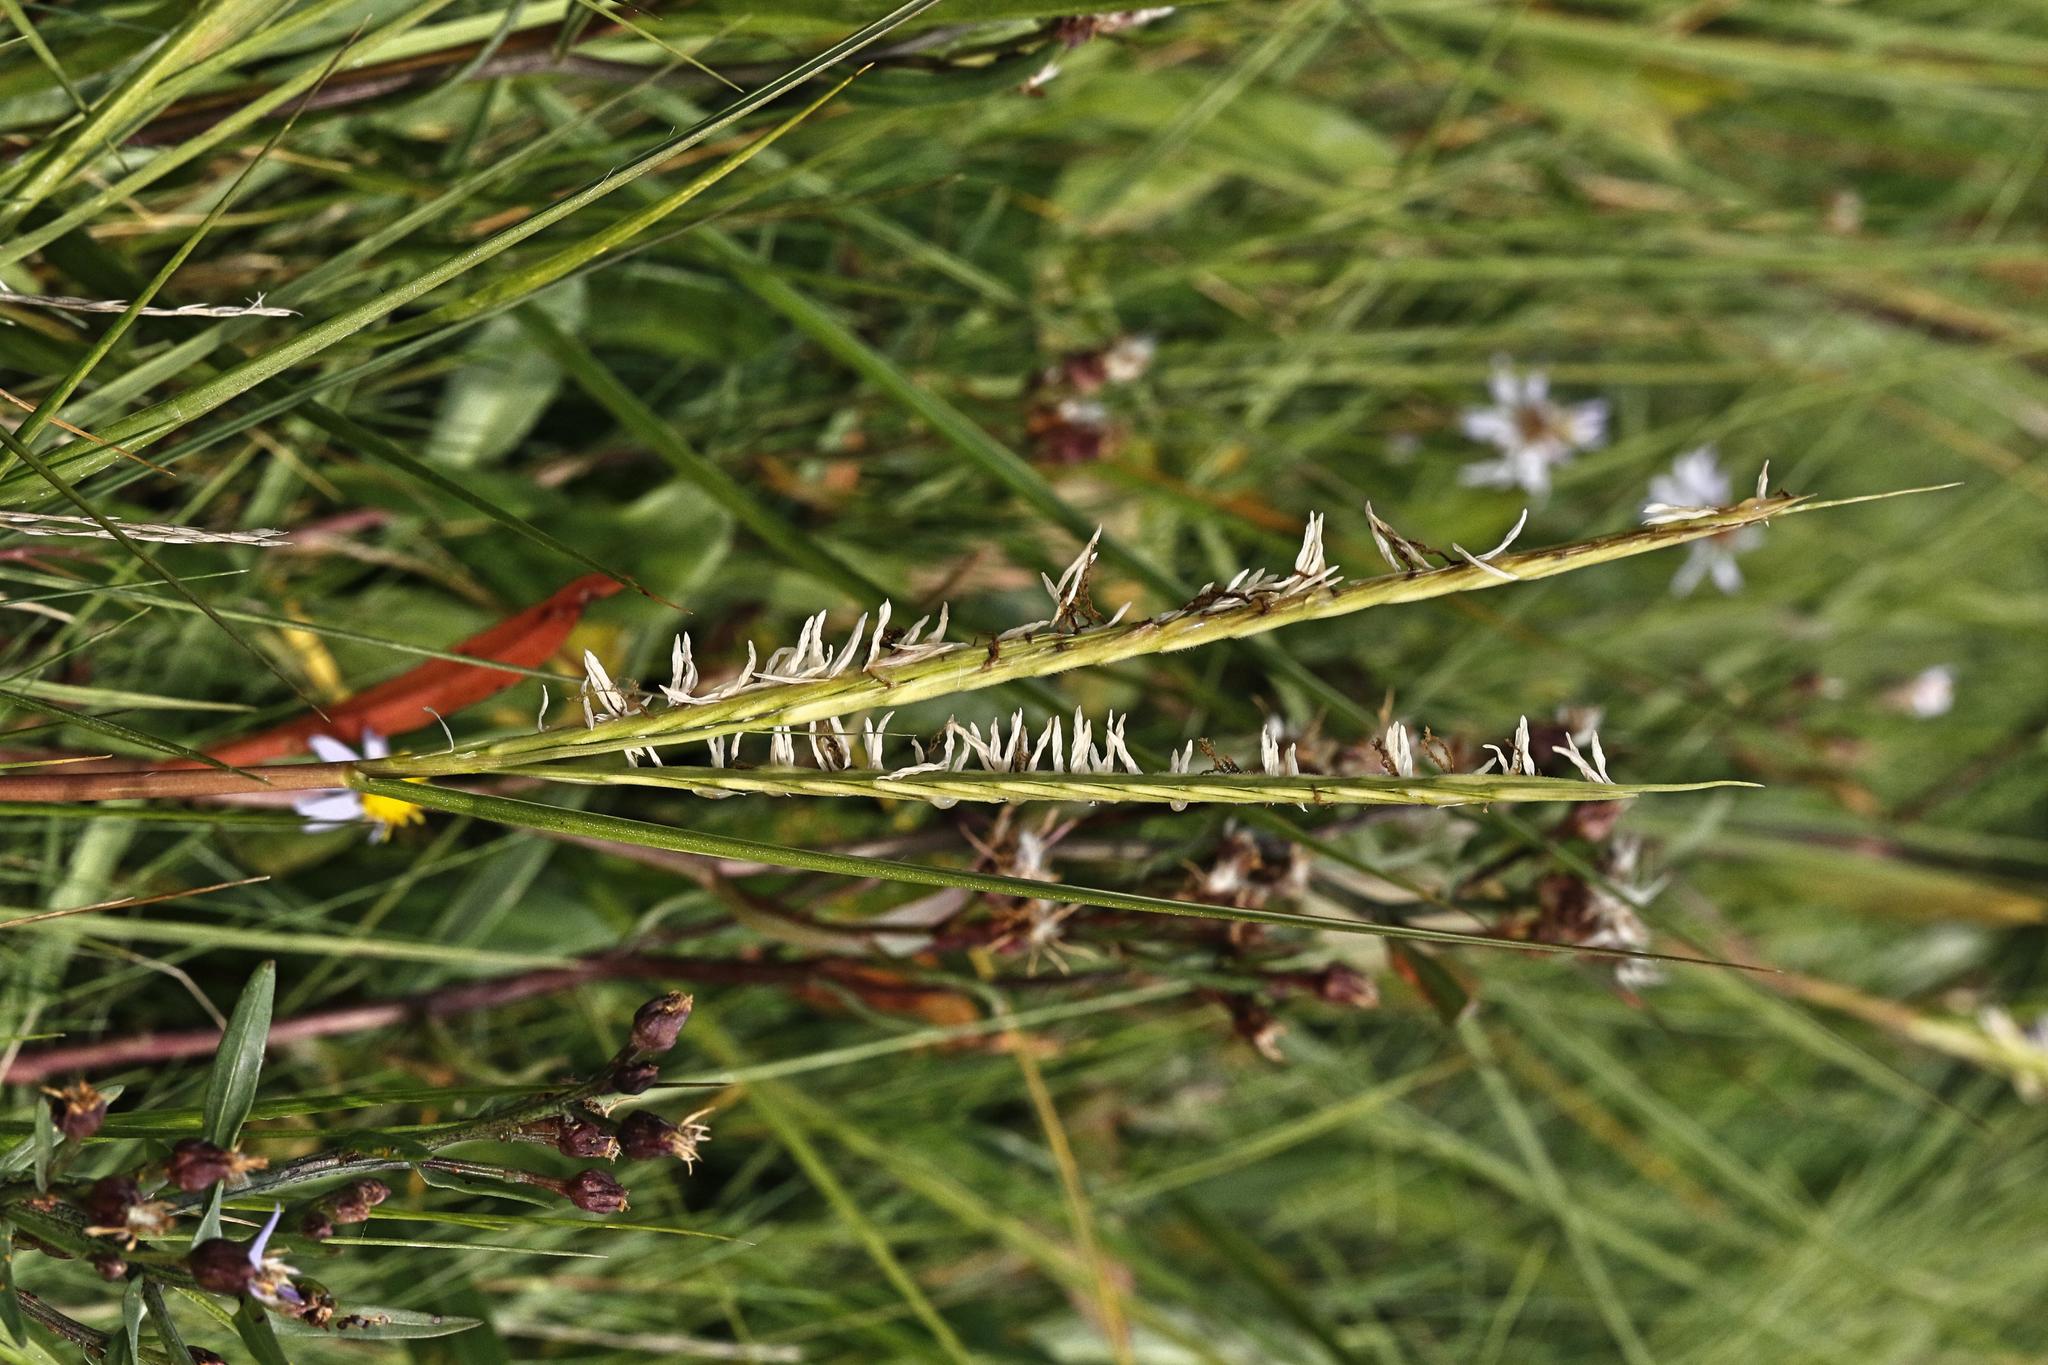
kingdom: Plantae
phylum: Tracheophyta
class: Liliopsida
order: Poales
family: Poaceae
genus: Sporobolus
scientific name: Sporobolus anglicus
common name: English cordgrass
